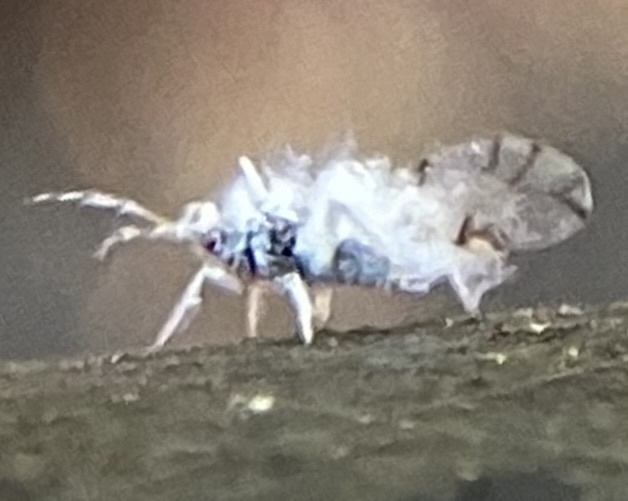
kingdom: Animalia
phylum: Arthropoda
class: Insecta
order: Hemiptera
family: Aphididae
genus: Shivaphis
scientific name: Shivaphis celti
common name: Asian wooly hackberry aphid
